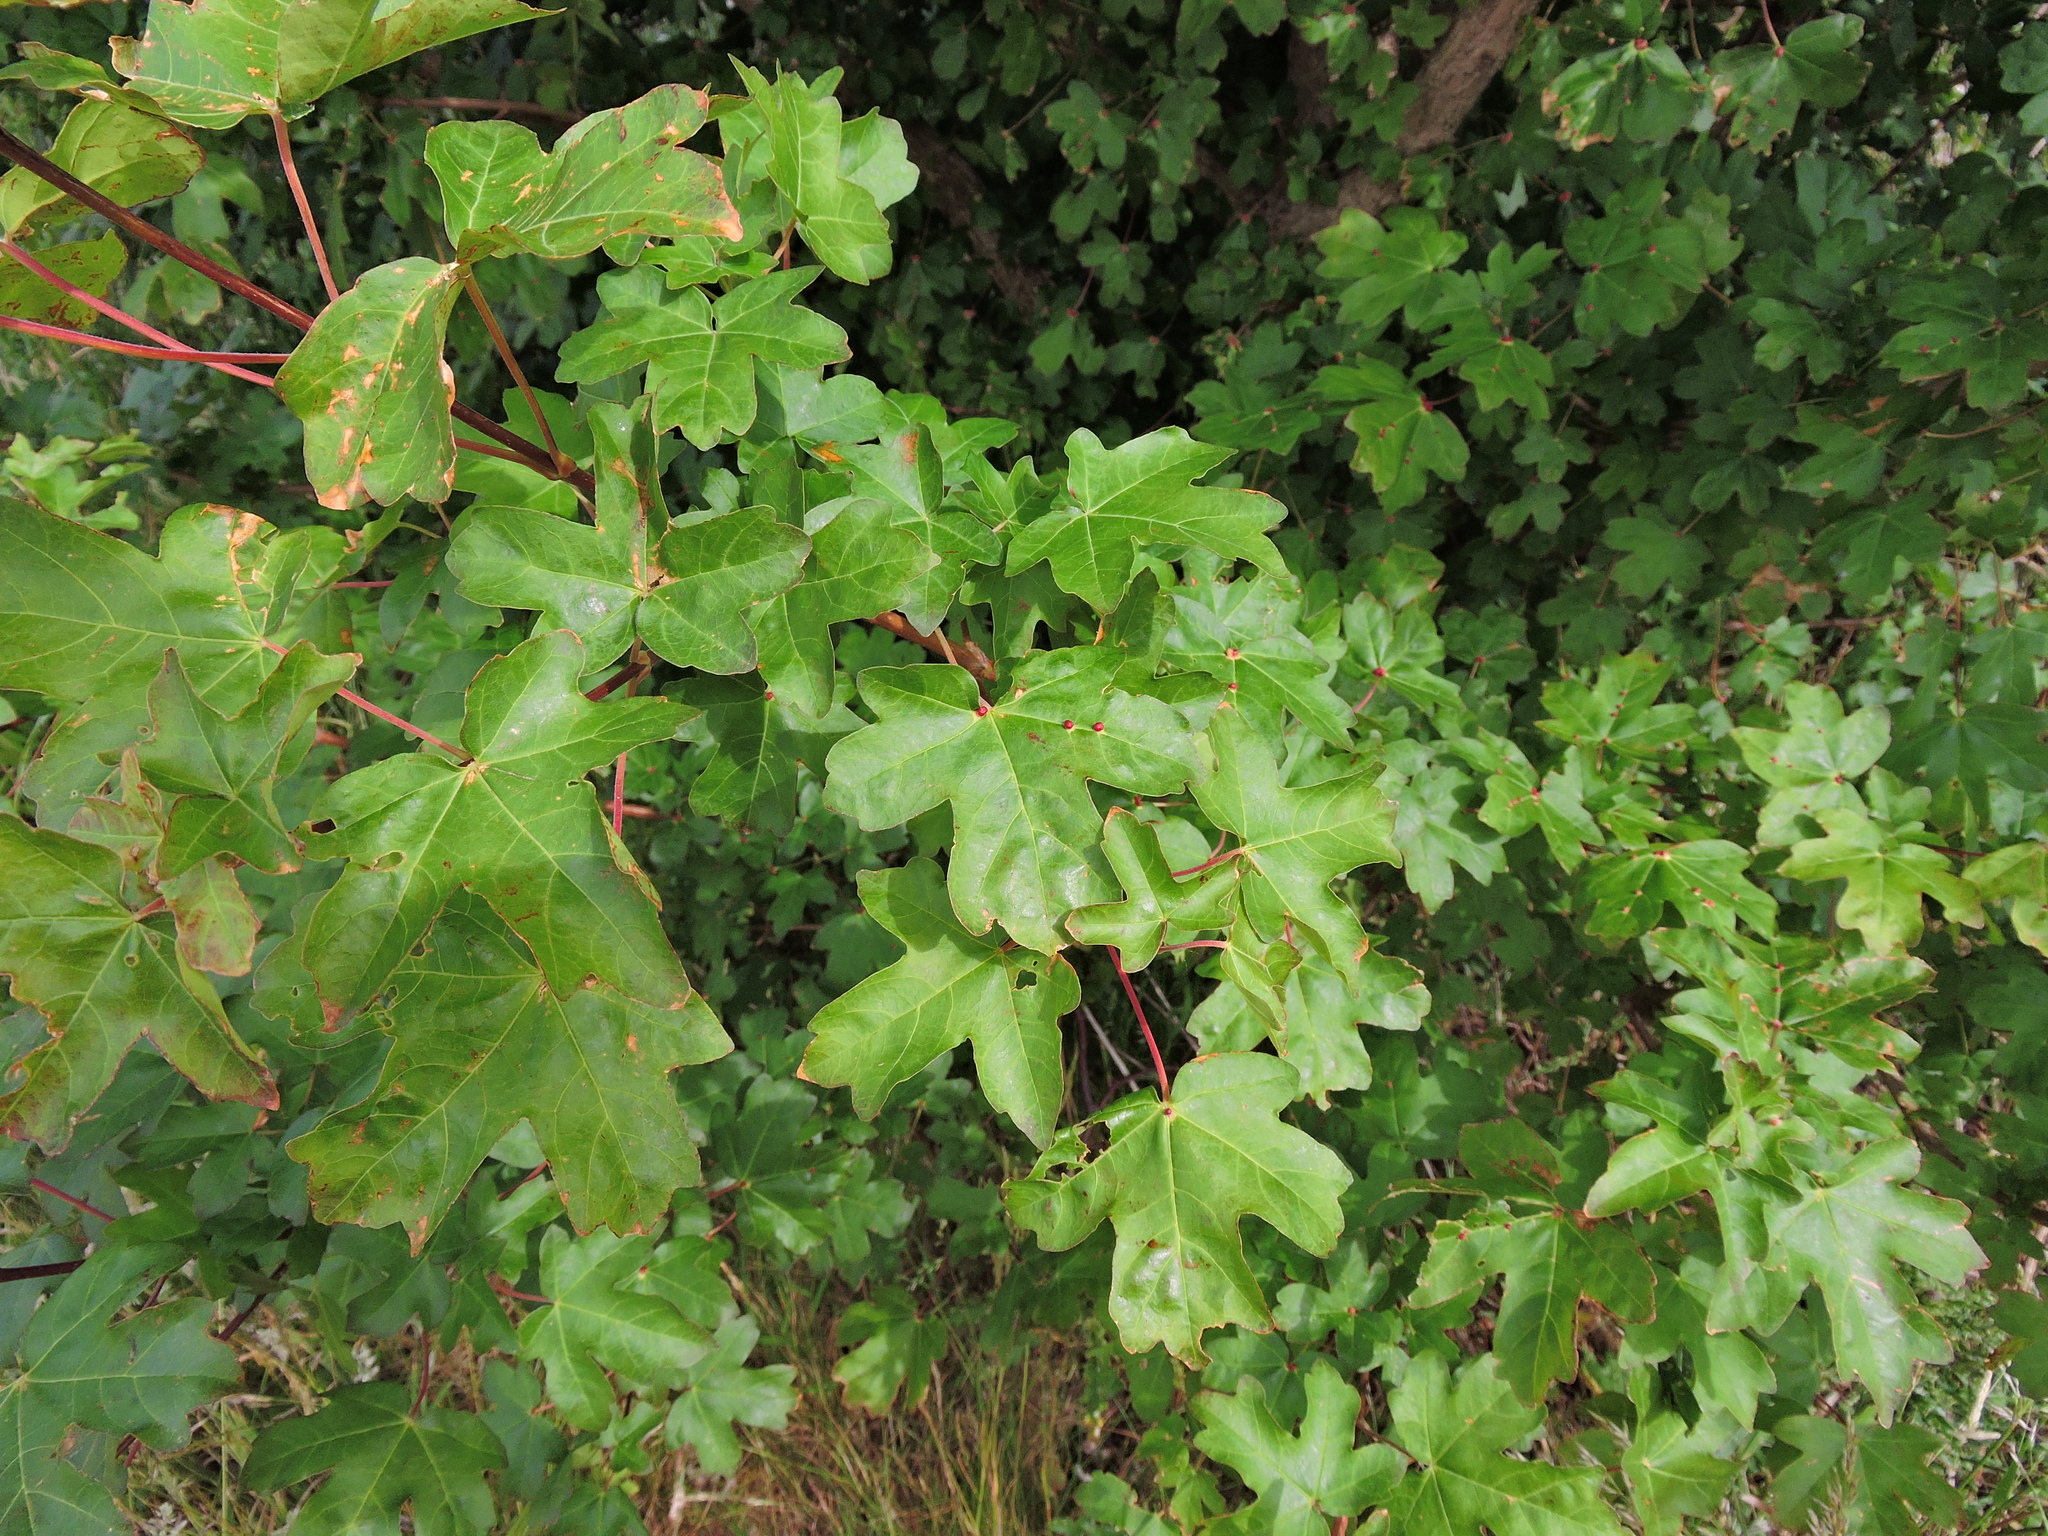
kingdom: Plantae
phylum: Tracheophyta
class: Magnoliopsida
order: Sapindales
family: Sapindaceae
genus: Acer
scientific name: Acer campestre
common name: Field maple
